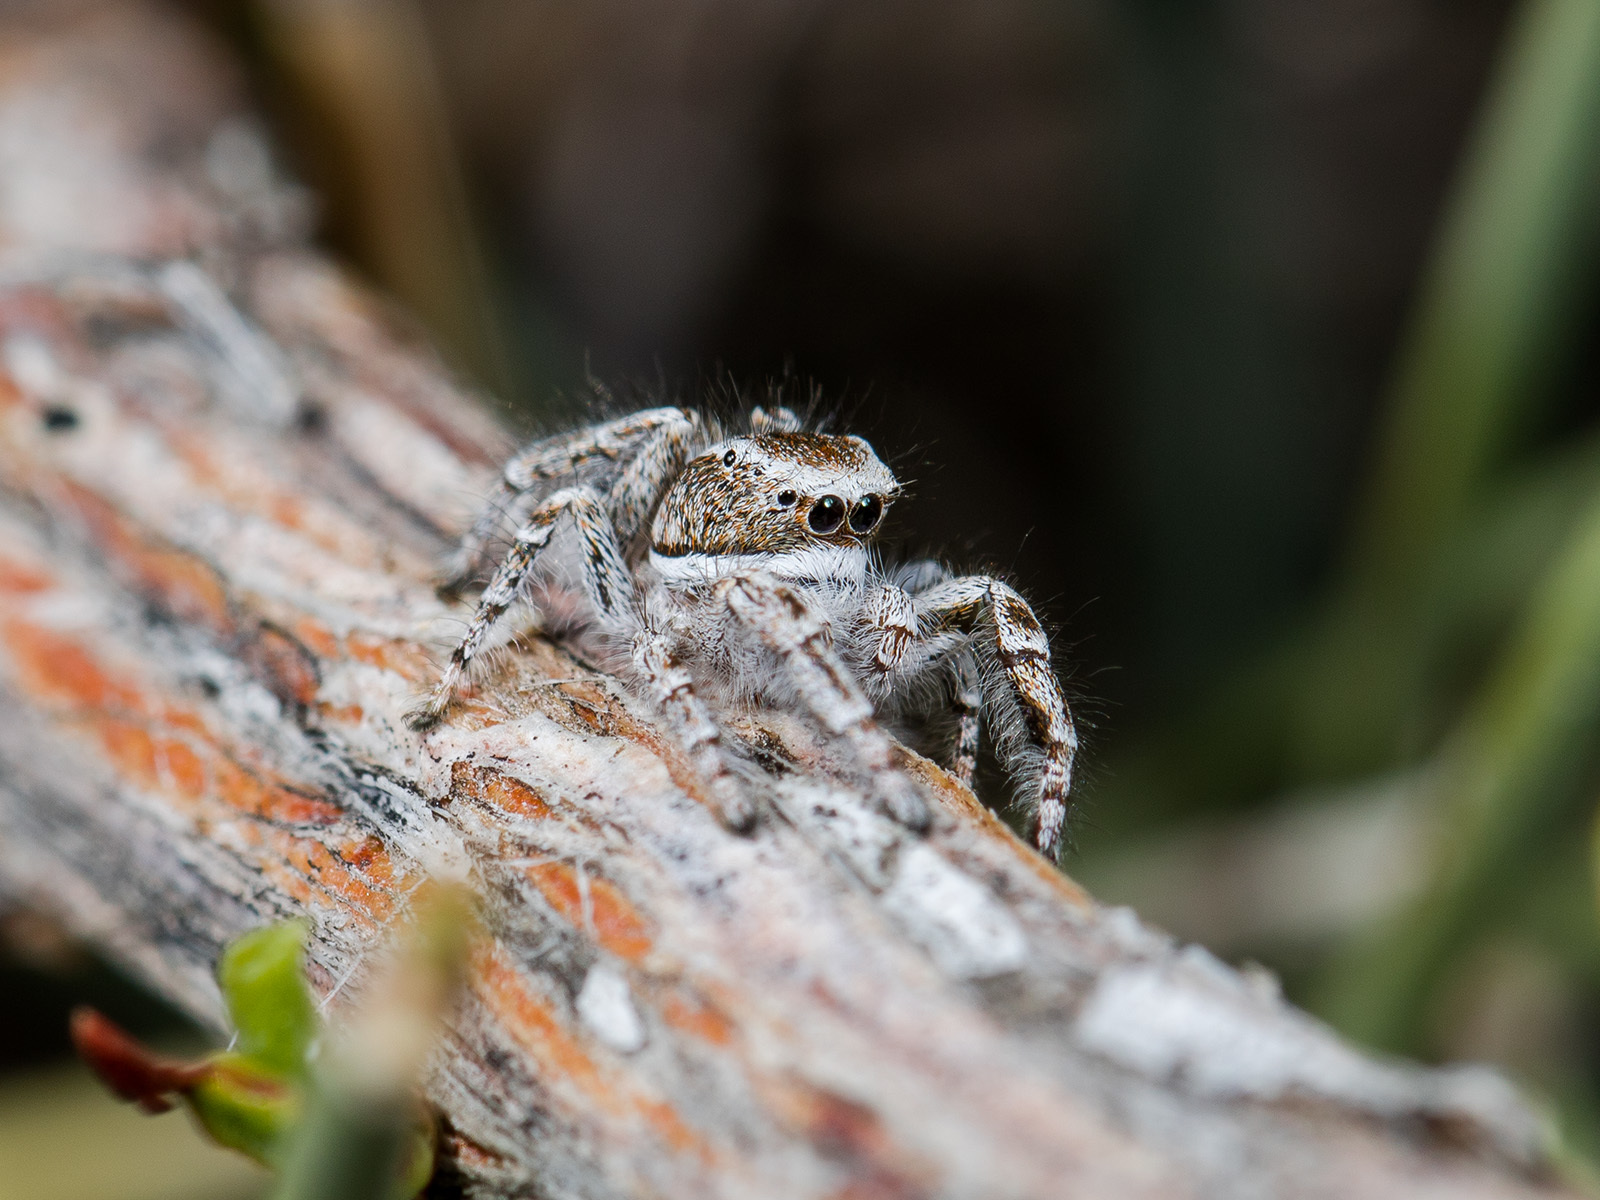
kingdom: Animalia
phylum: Arthropoda
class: Arachnida
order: Araneae
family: Salticidae
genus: Pseudomogrus
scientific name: Pseudomogrus vittatus
